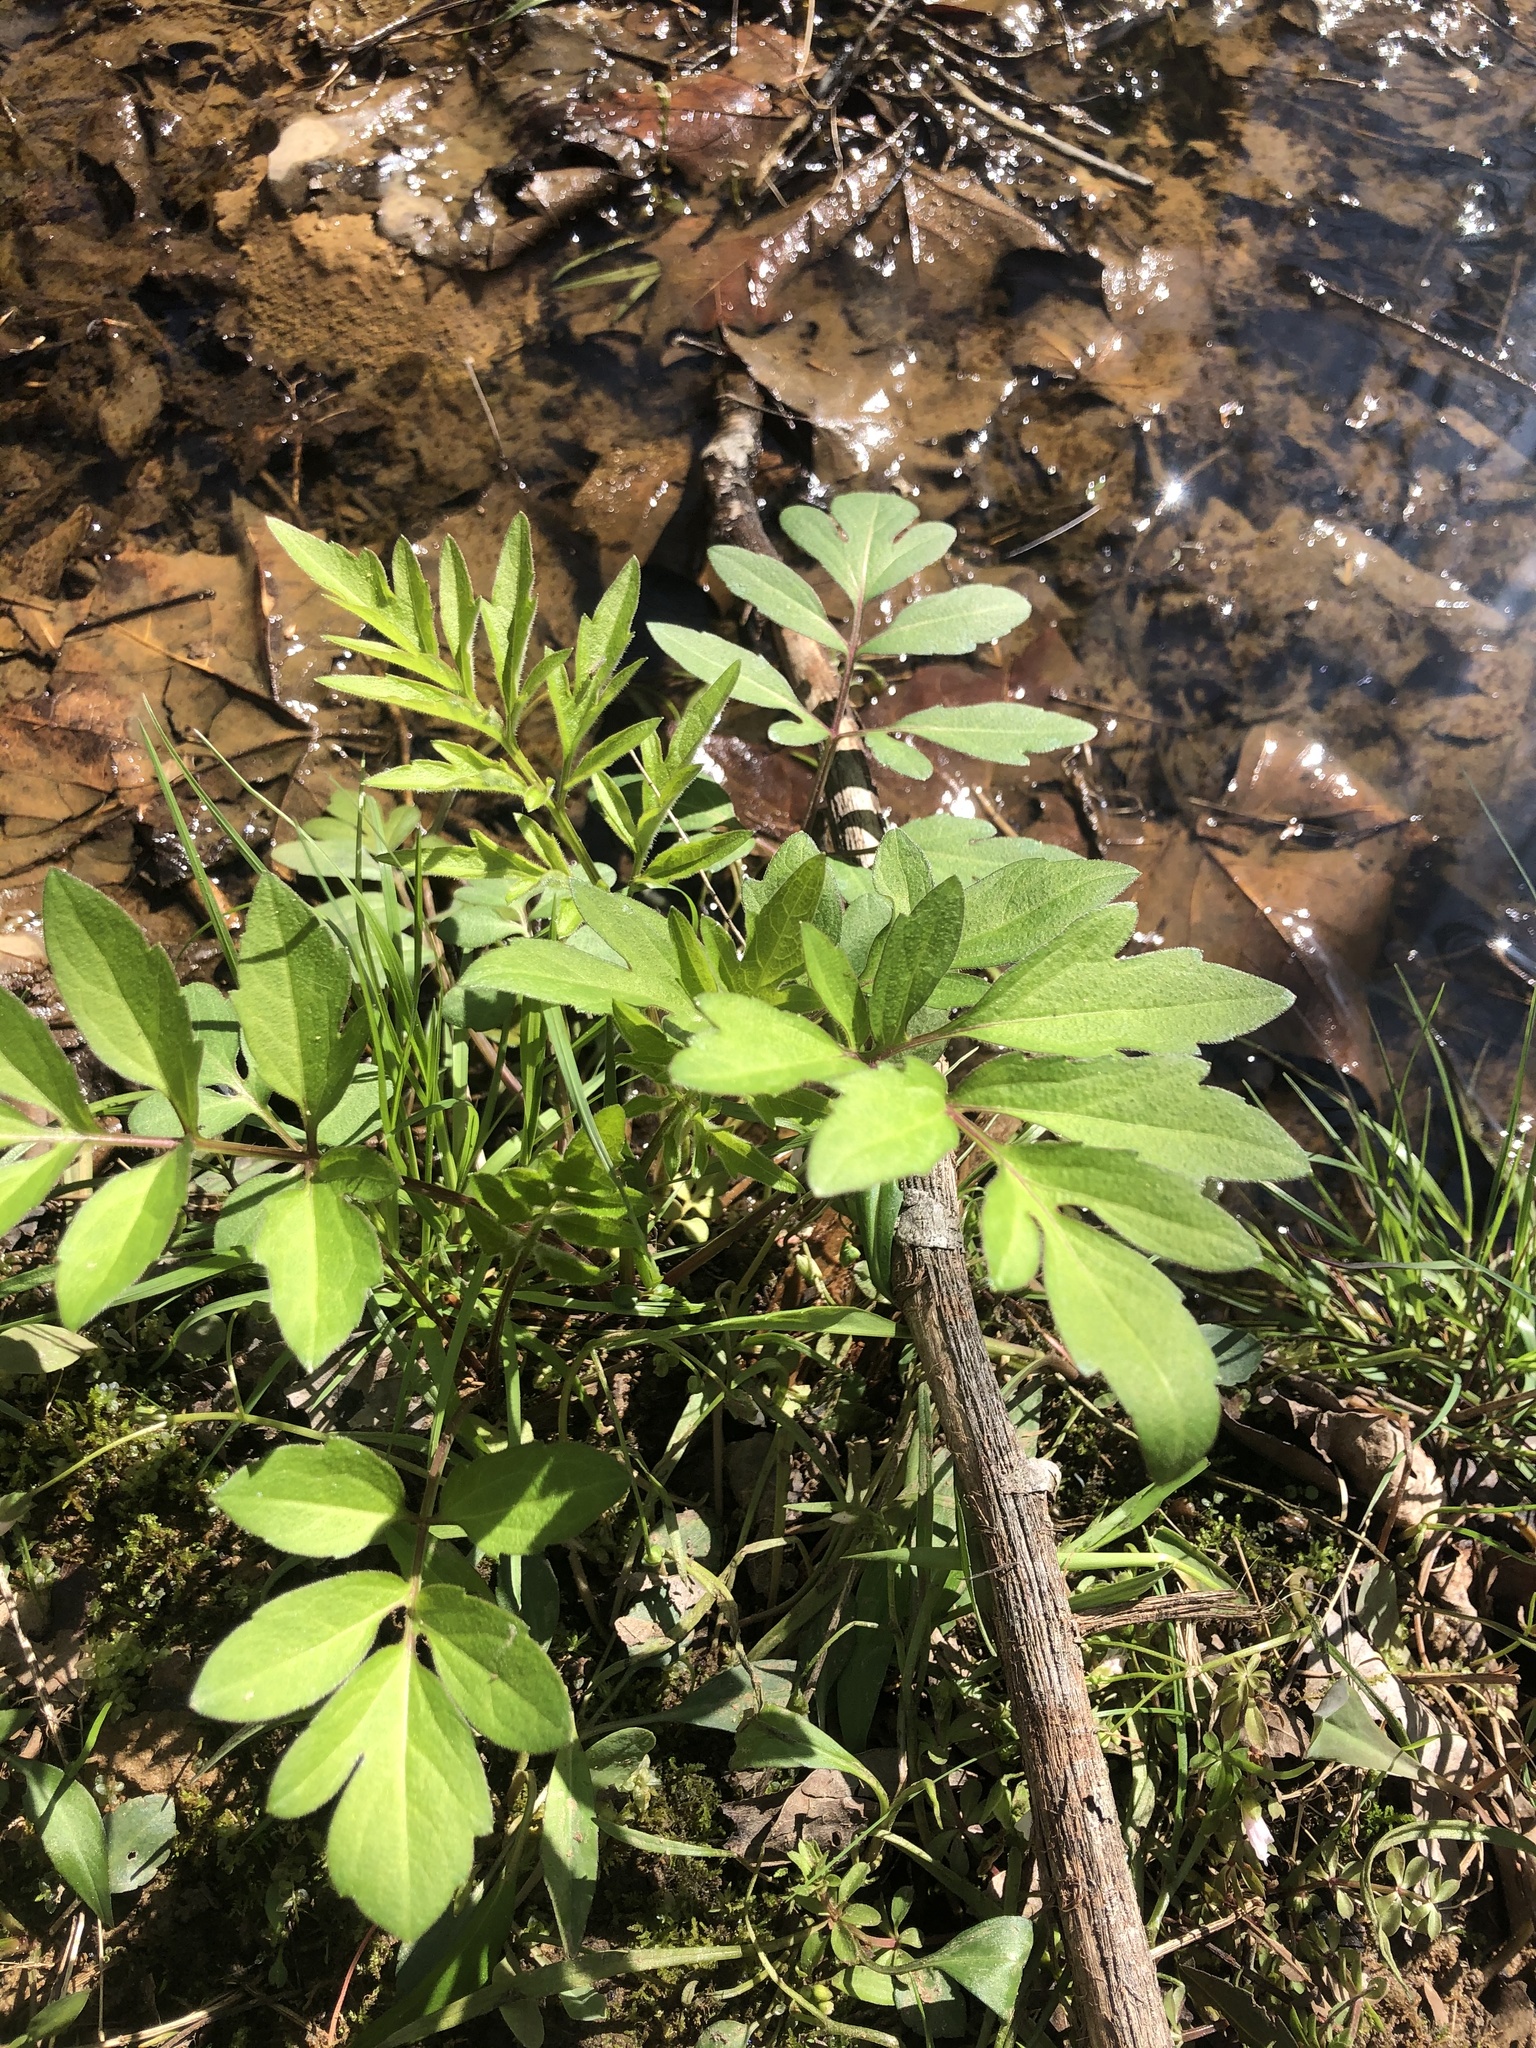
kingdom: Plantae
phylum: Tracheophyta
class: Magnoliopsida
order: Asterales
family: Asteraceae
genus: Rudbeckia
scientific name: Rudbeckia laciniata
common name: Coneflower
